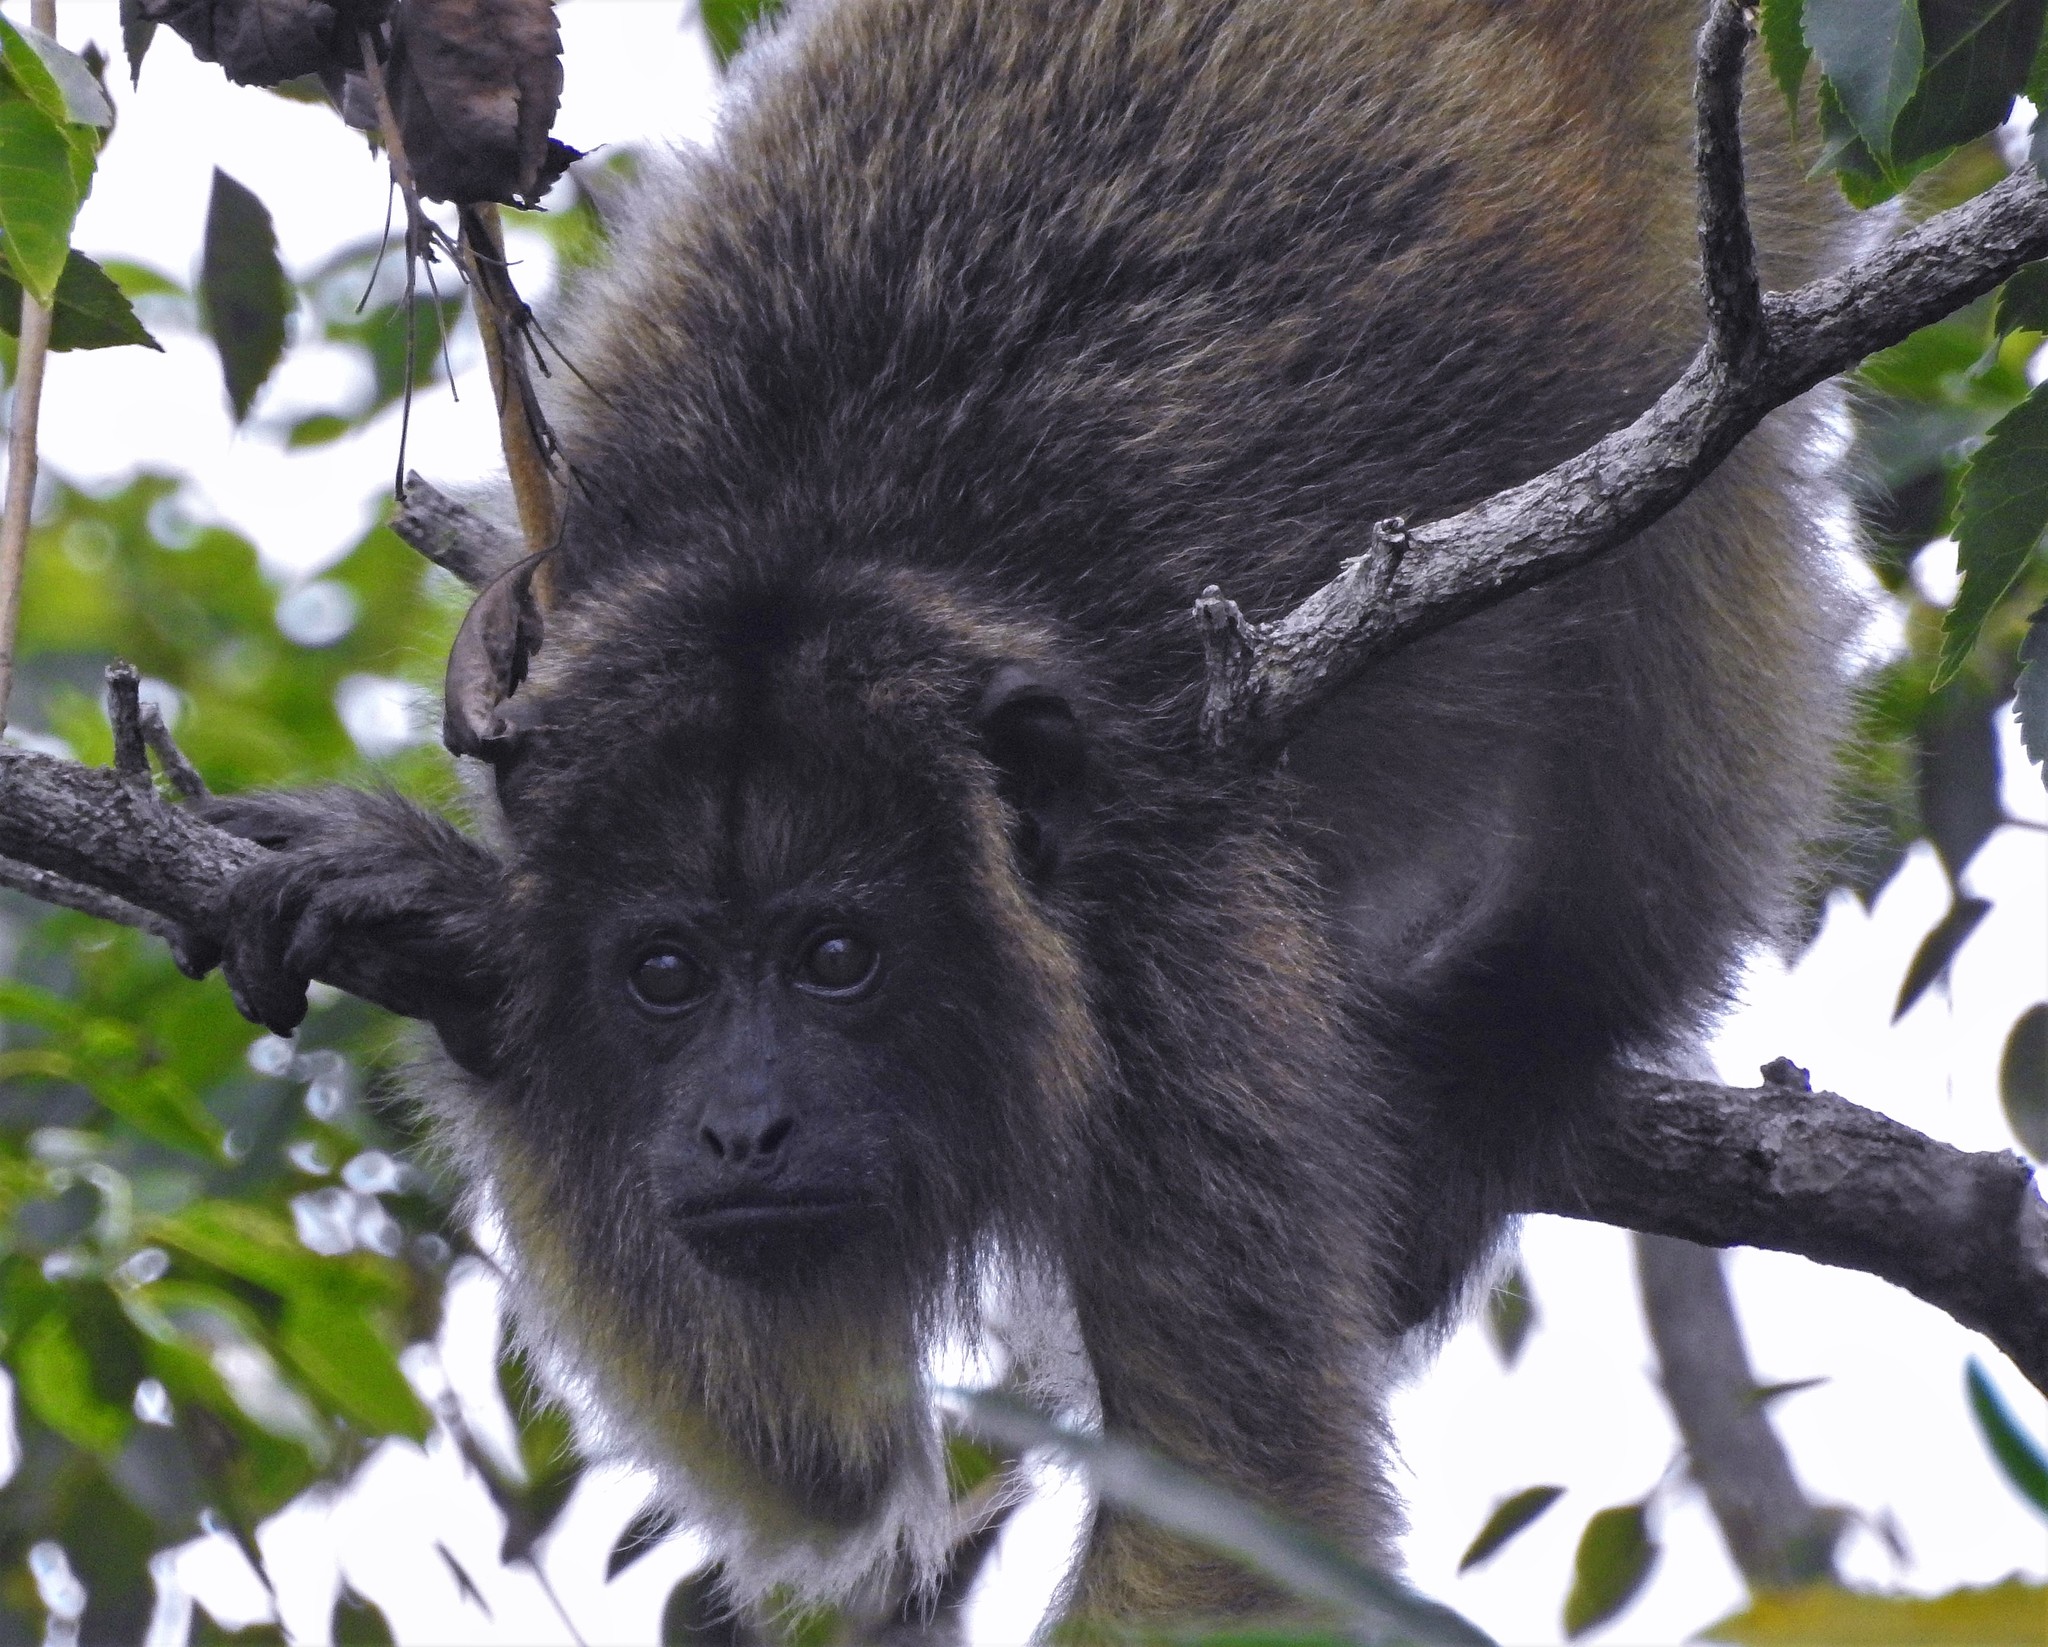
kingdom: Animalia
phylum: Chordata
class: Mammalia
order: Primates
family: Atelidae
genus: Alouatta
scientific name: Alouatta caraya
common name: Black howler
